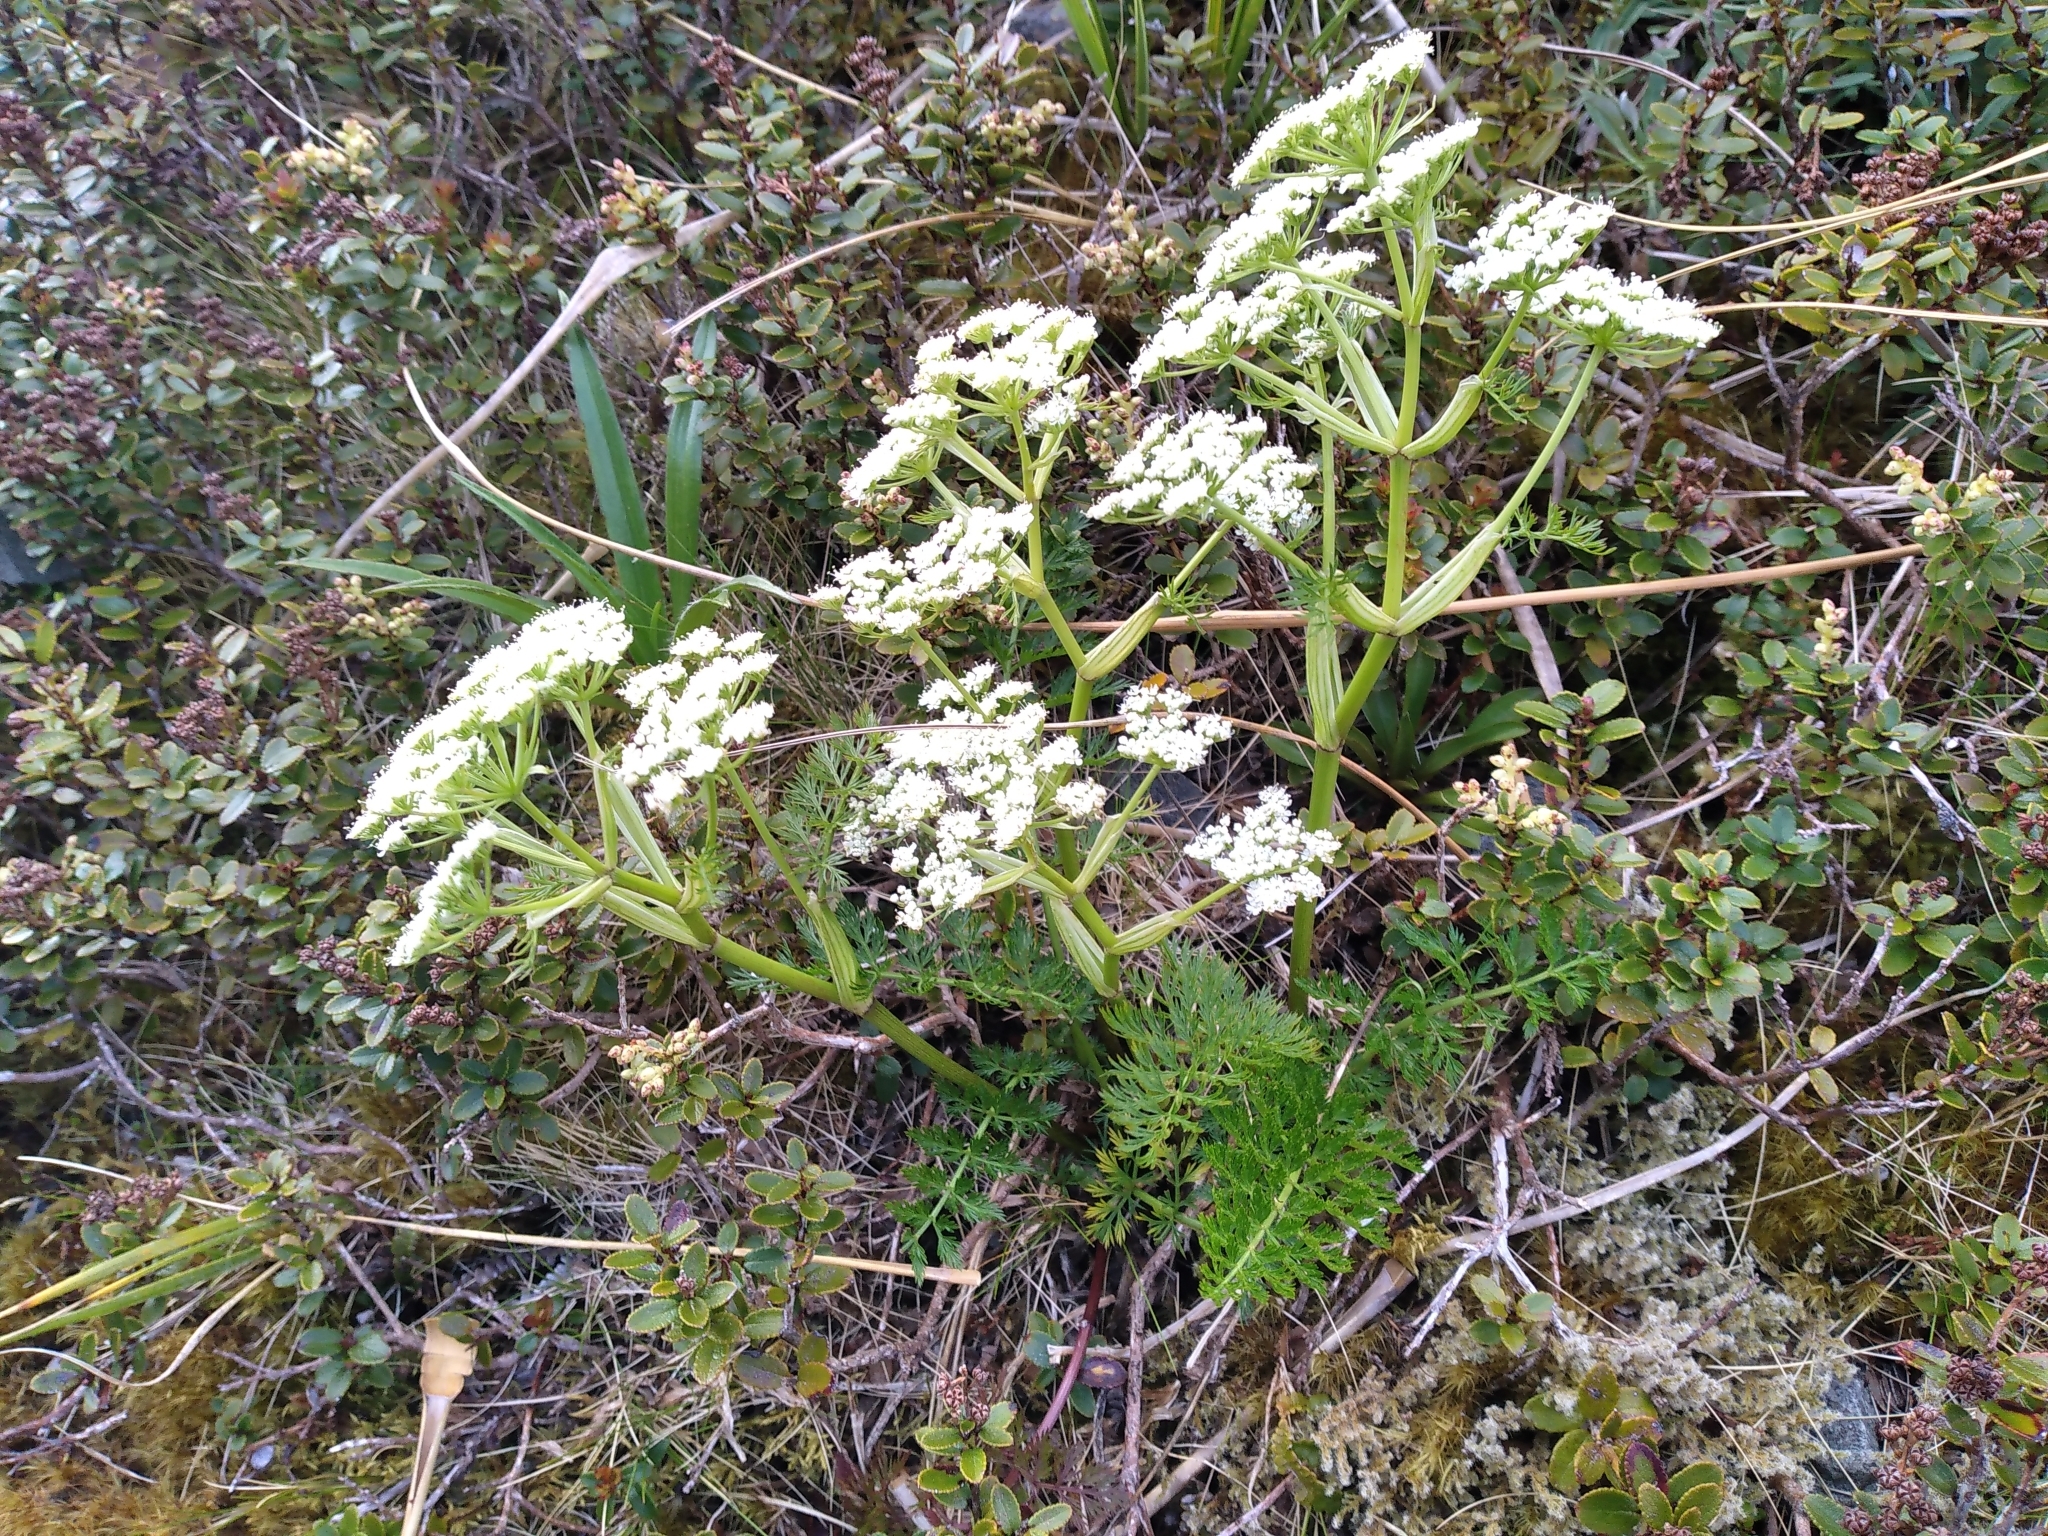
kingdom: Plantae
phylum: Tracheophyta
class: Magnoliopsida
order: Apiales
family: Apiaceae
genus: Anisotome
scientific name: Anisotome haastii
